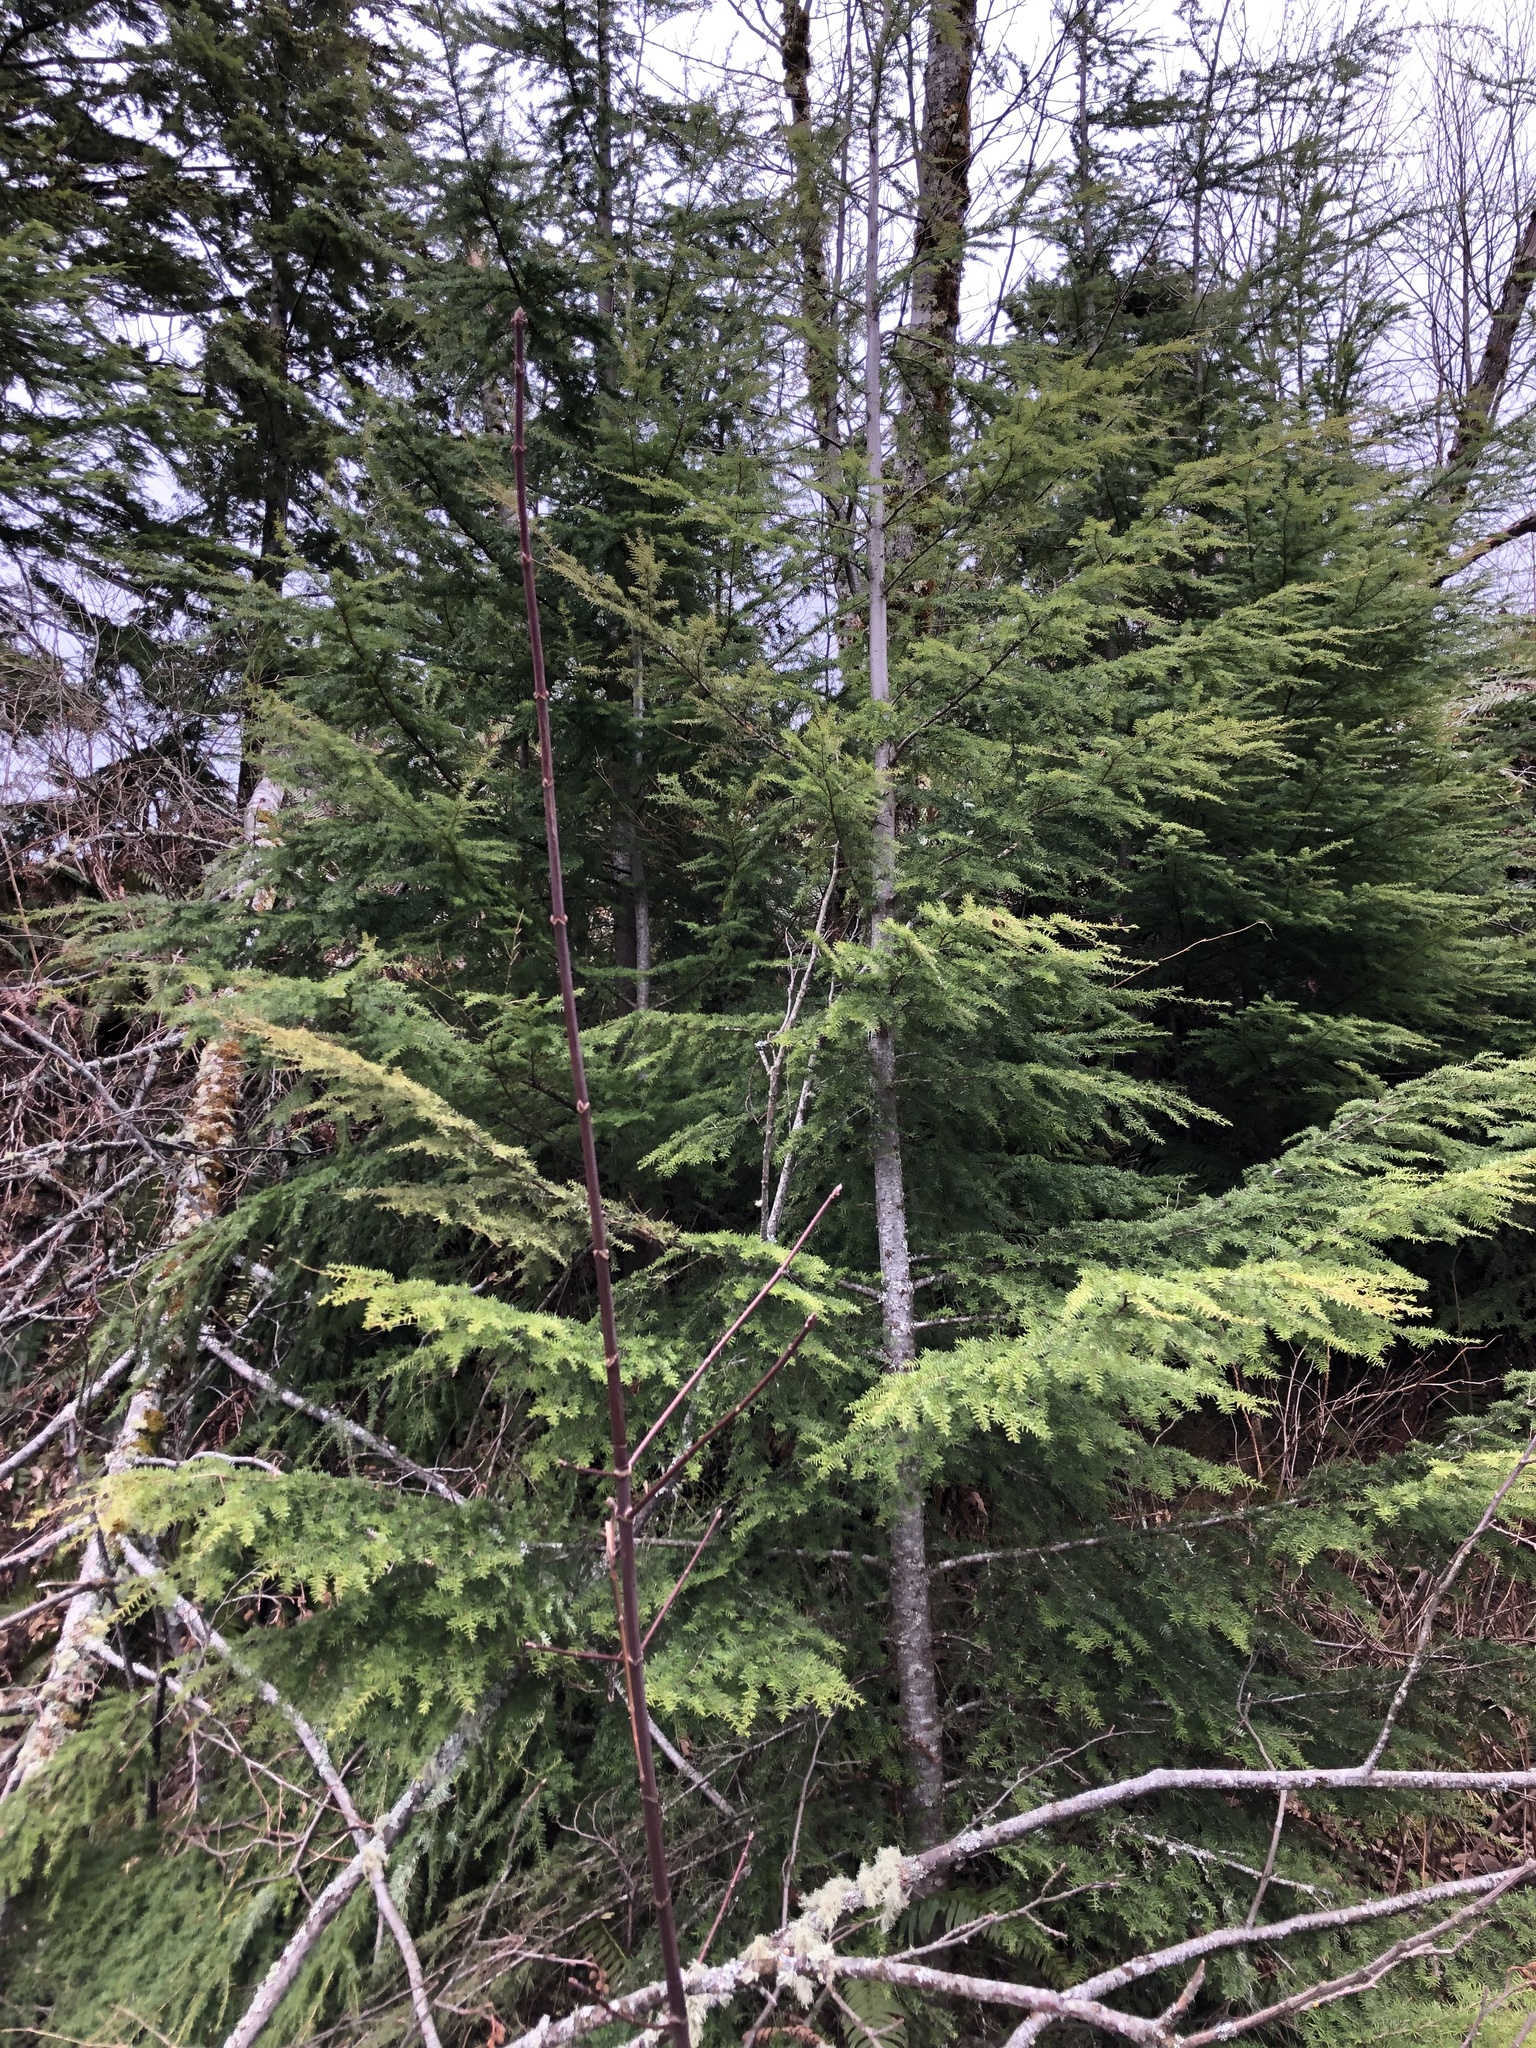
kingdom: Plantae
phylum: Tracheophyta
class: Pinopsida
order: Pinales
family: Pinaceae
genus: Tsuga
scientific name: Tsuga heterophylla
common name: Western hemlock
